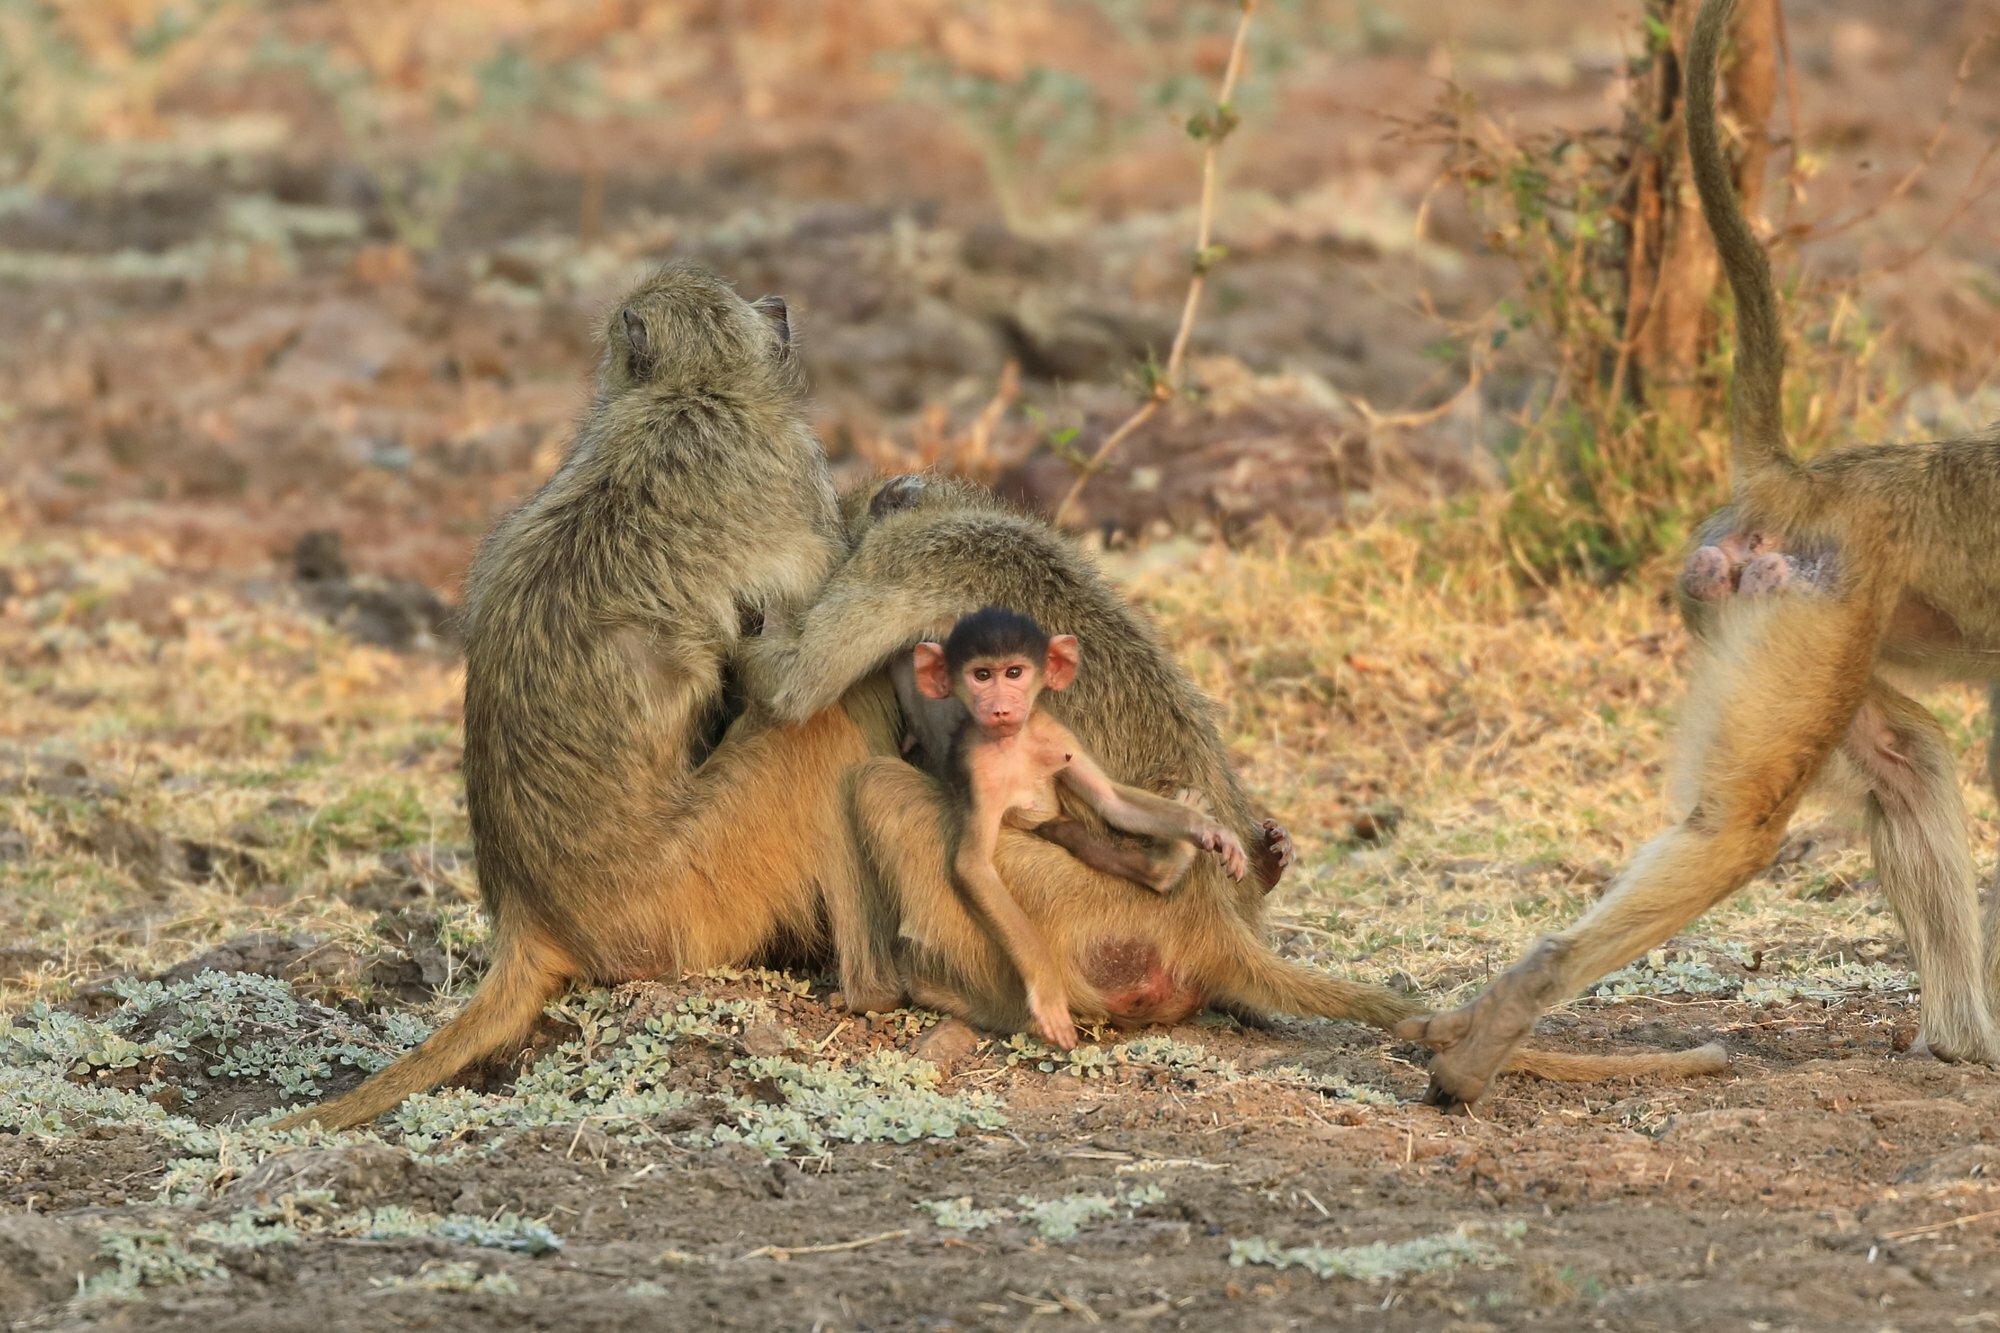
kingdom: Animalia
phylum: Chordata
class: Mammalia
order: Primates
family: Cercopithecidae
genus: Papio
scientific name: Papio cynocephalus
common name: Yellow baboon
